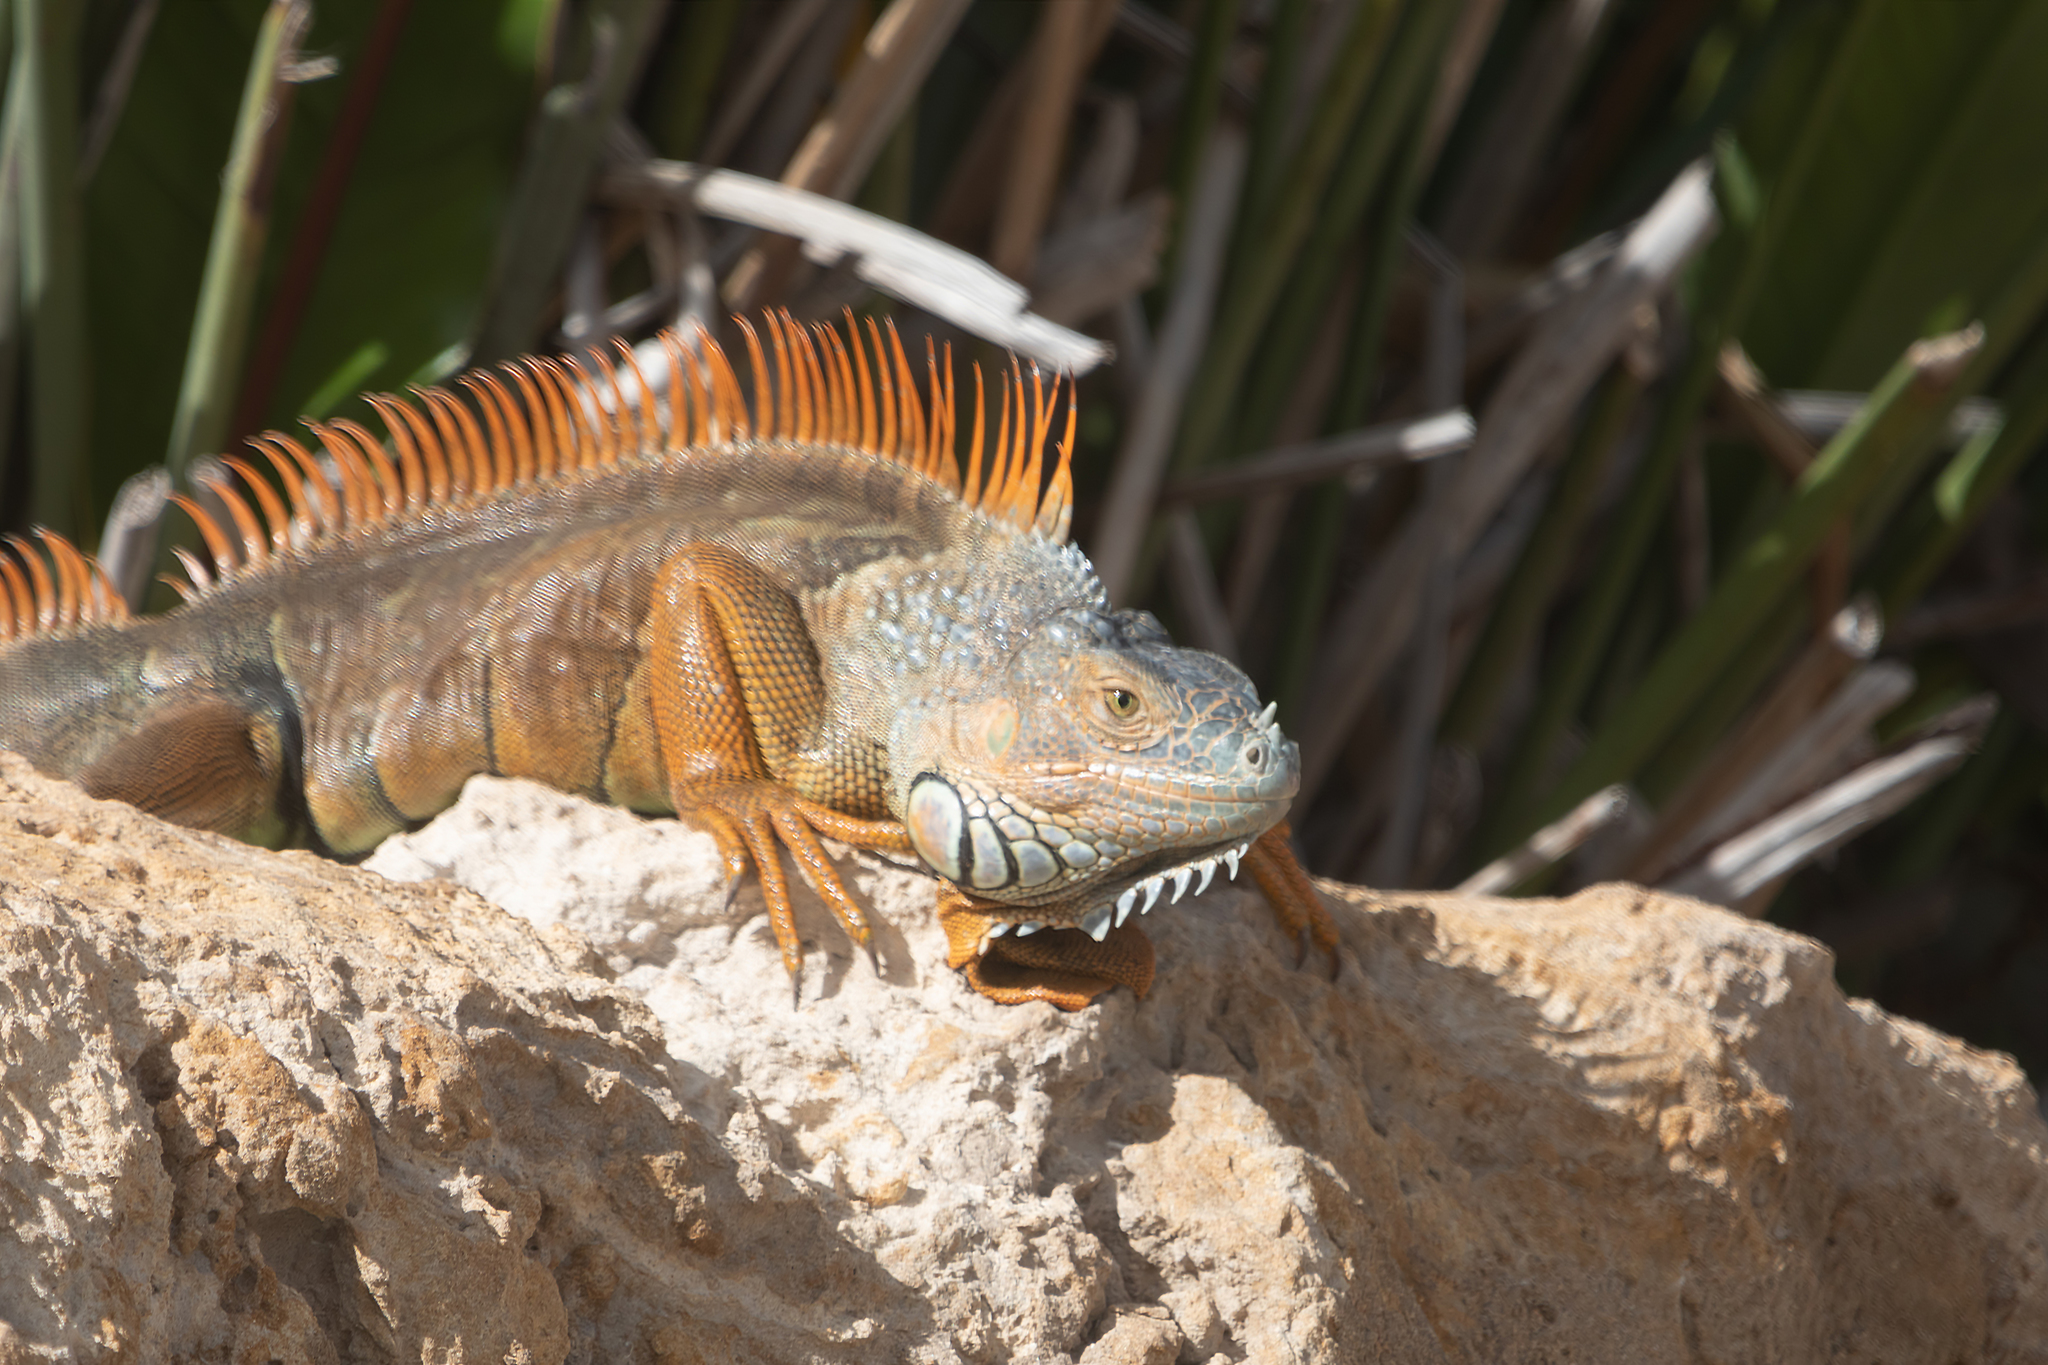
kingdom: Animalia
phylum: Chordata
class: Squamata
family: Iguanidae
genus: Iguana
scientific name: Iguana iguana
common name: Green iguana
